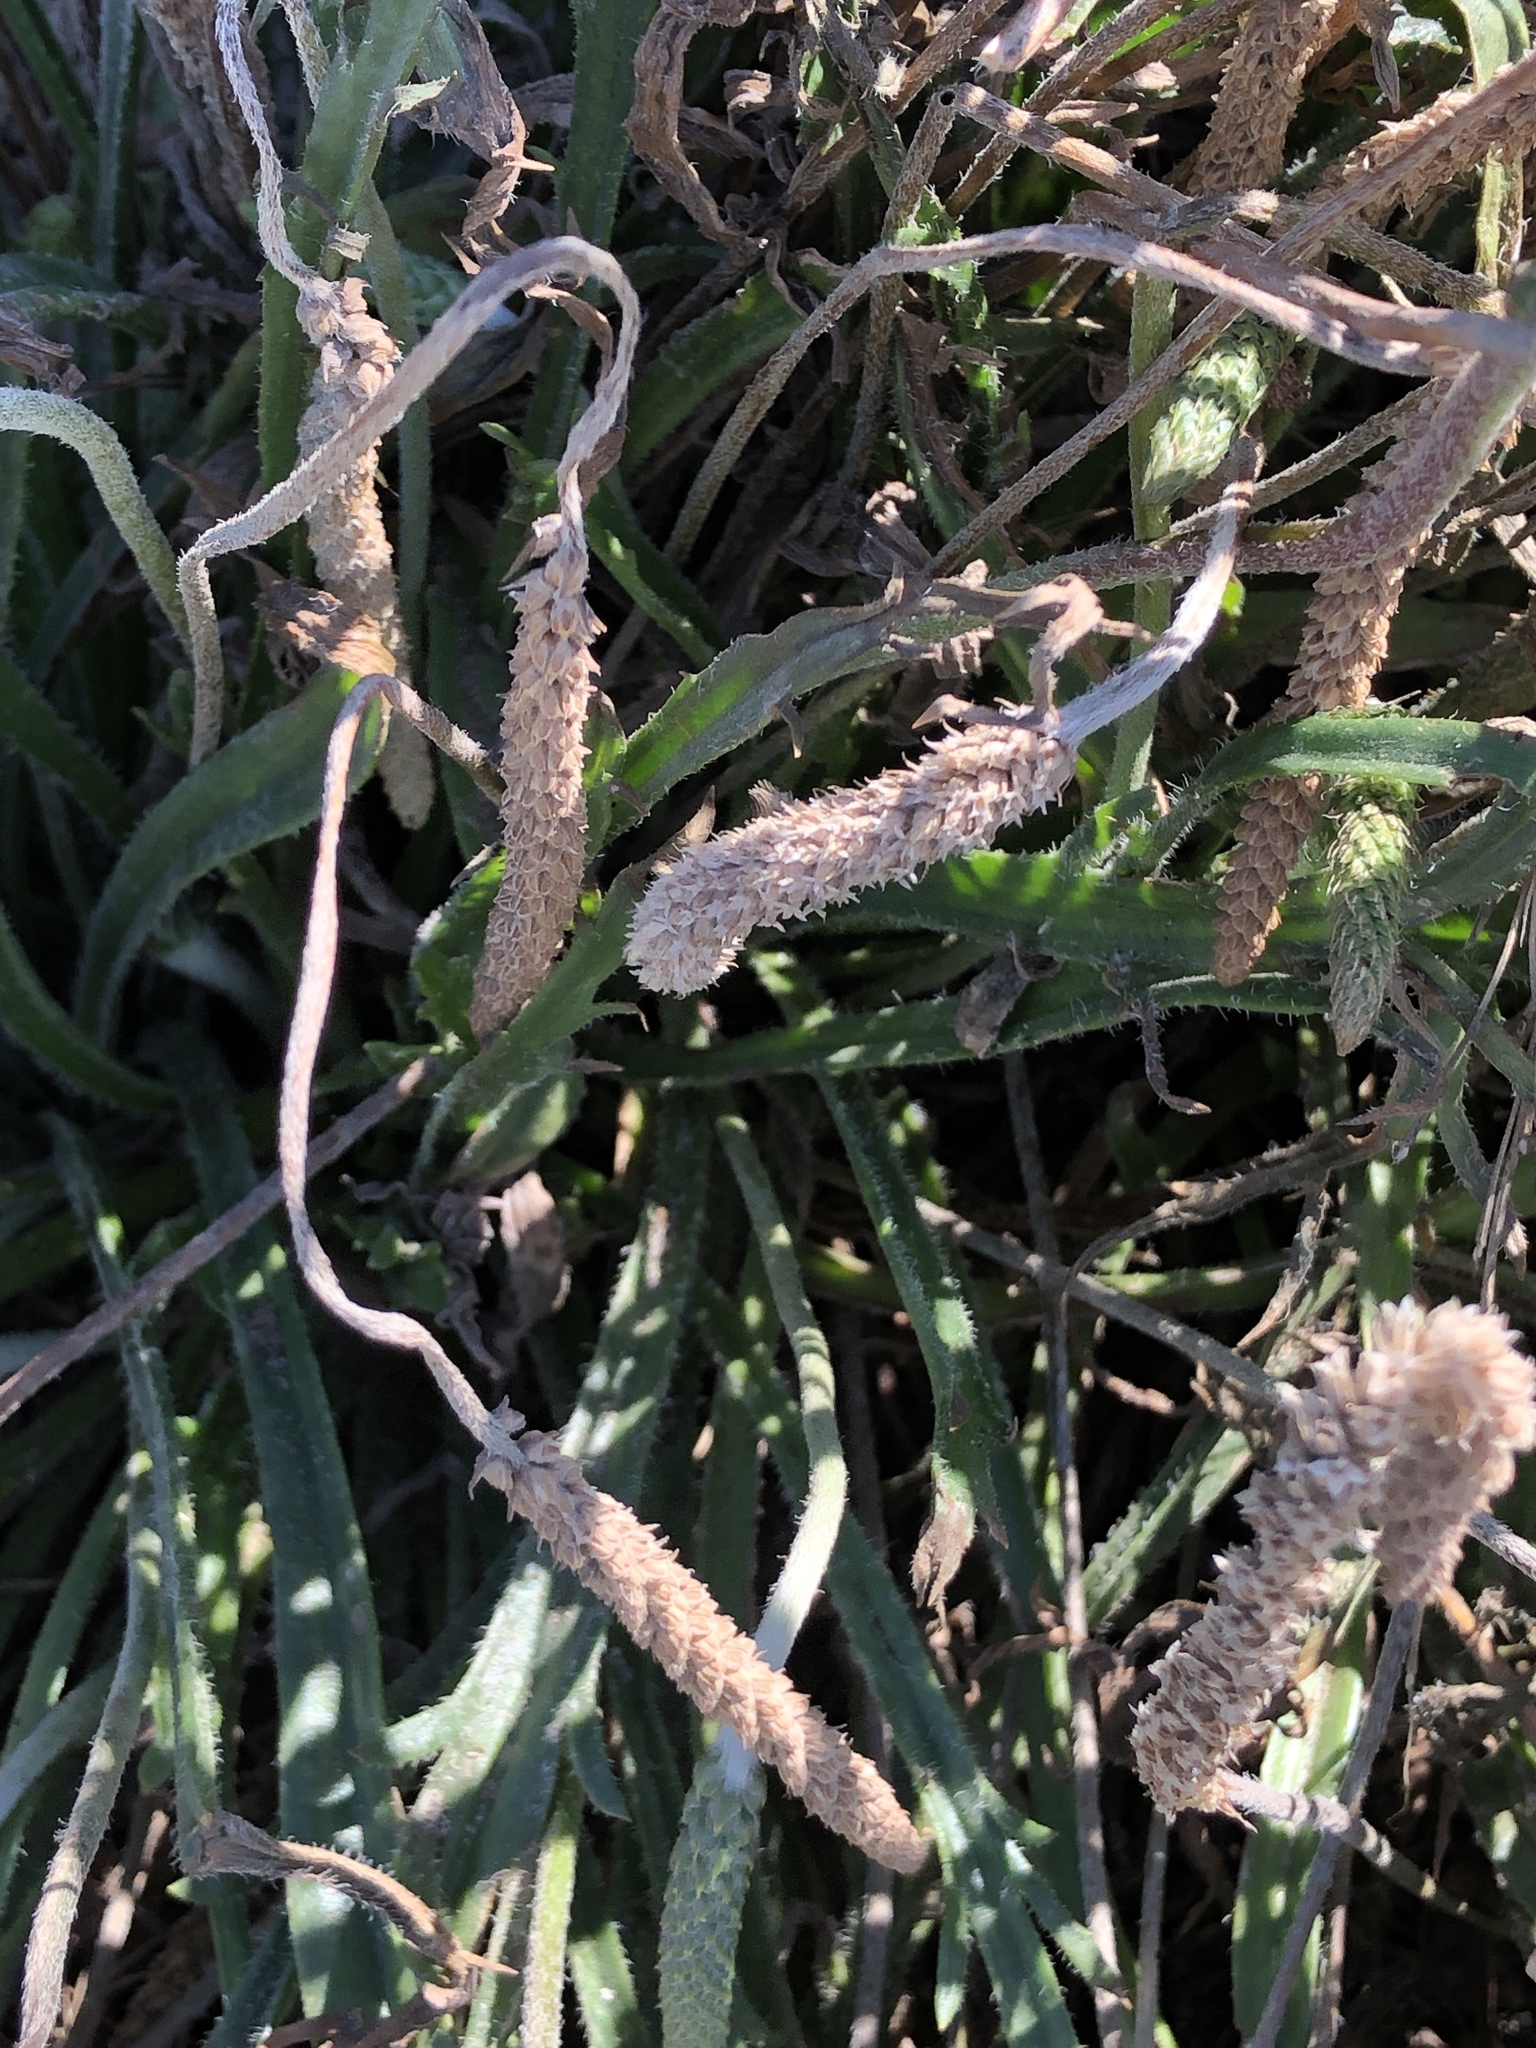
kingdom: Plantae
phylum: Tracheophyta
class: Magnoliopsida
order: Lamiales
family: Plantaginaceae
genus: Plantago
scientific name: Plantago coronopus
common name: Buck's-horn plantain
